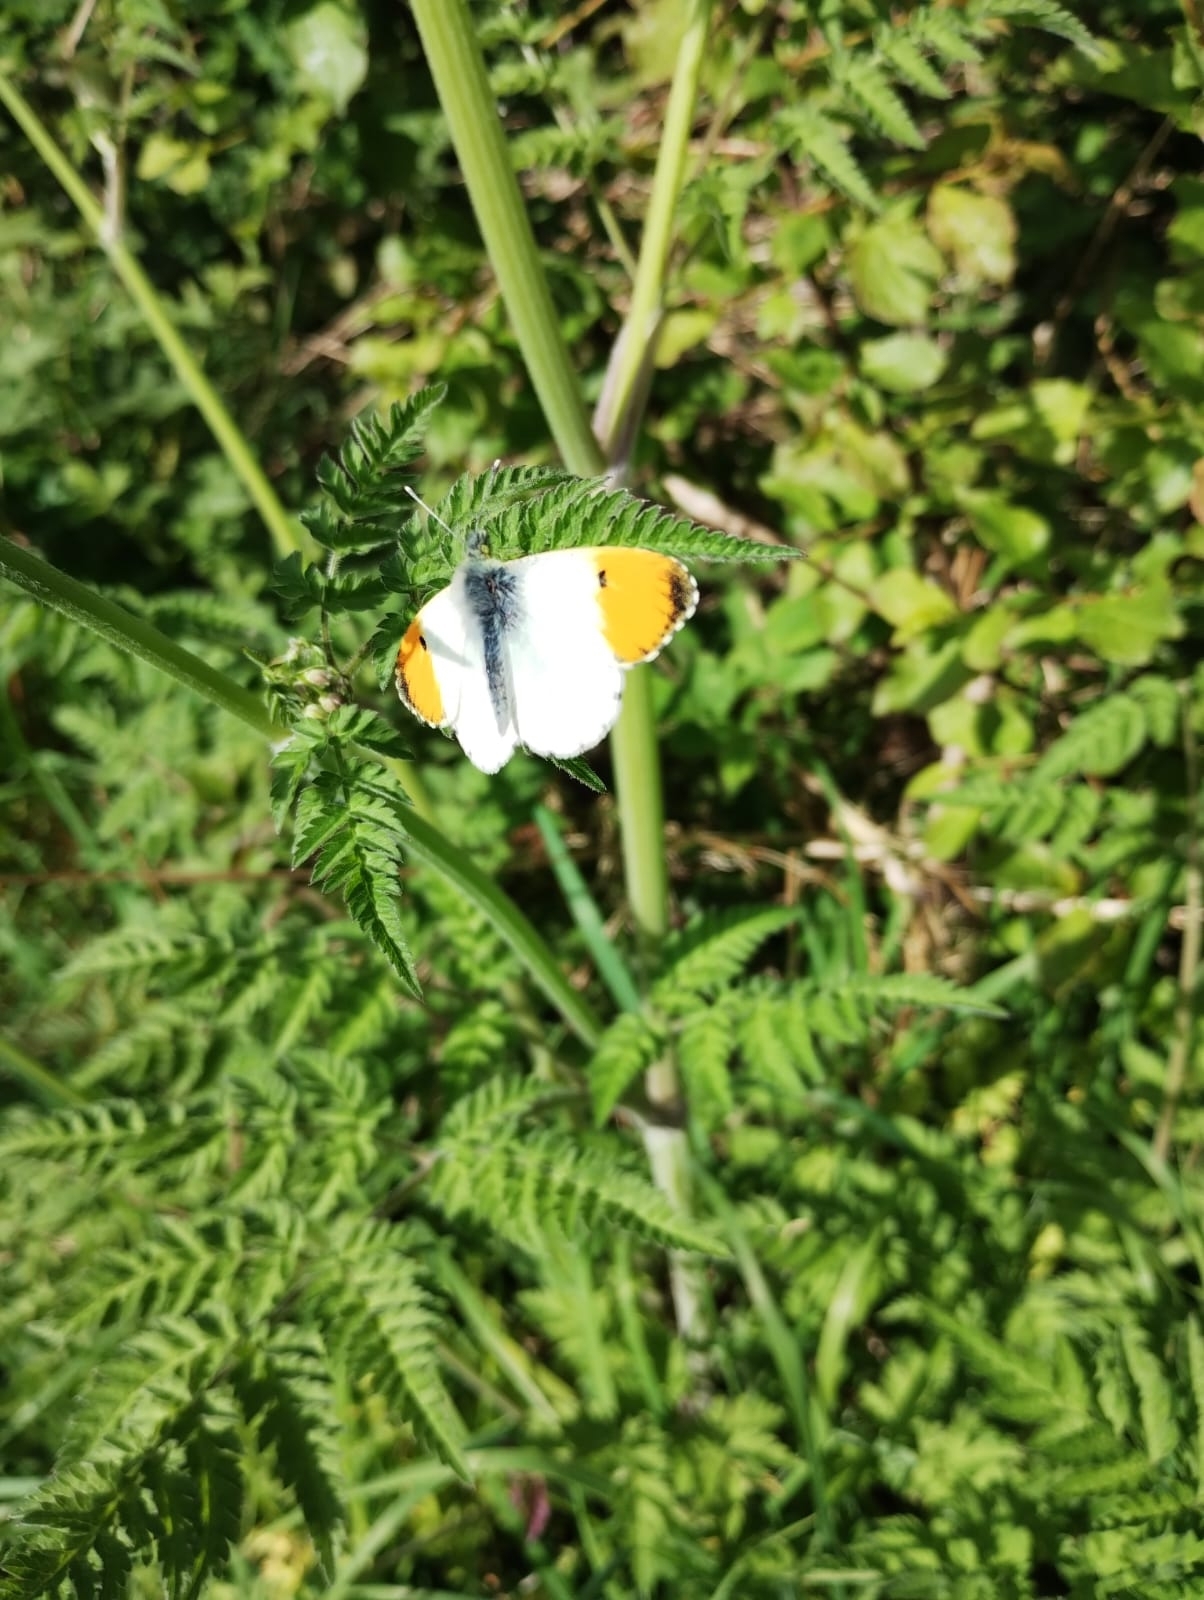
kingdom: Animalia
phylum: Arthropoda
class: Insecta
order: Lepidoptera
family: Pieridae
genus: Anthocharis
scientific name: Anthocharis cardamines
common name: Orange-tip
